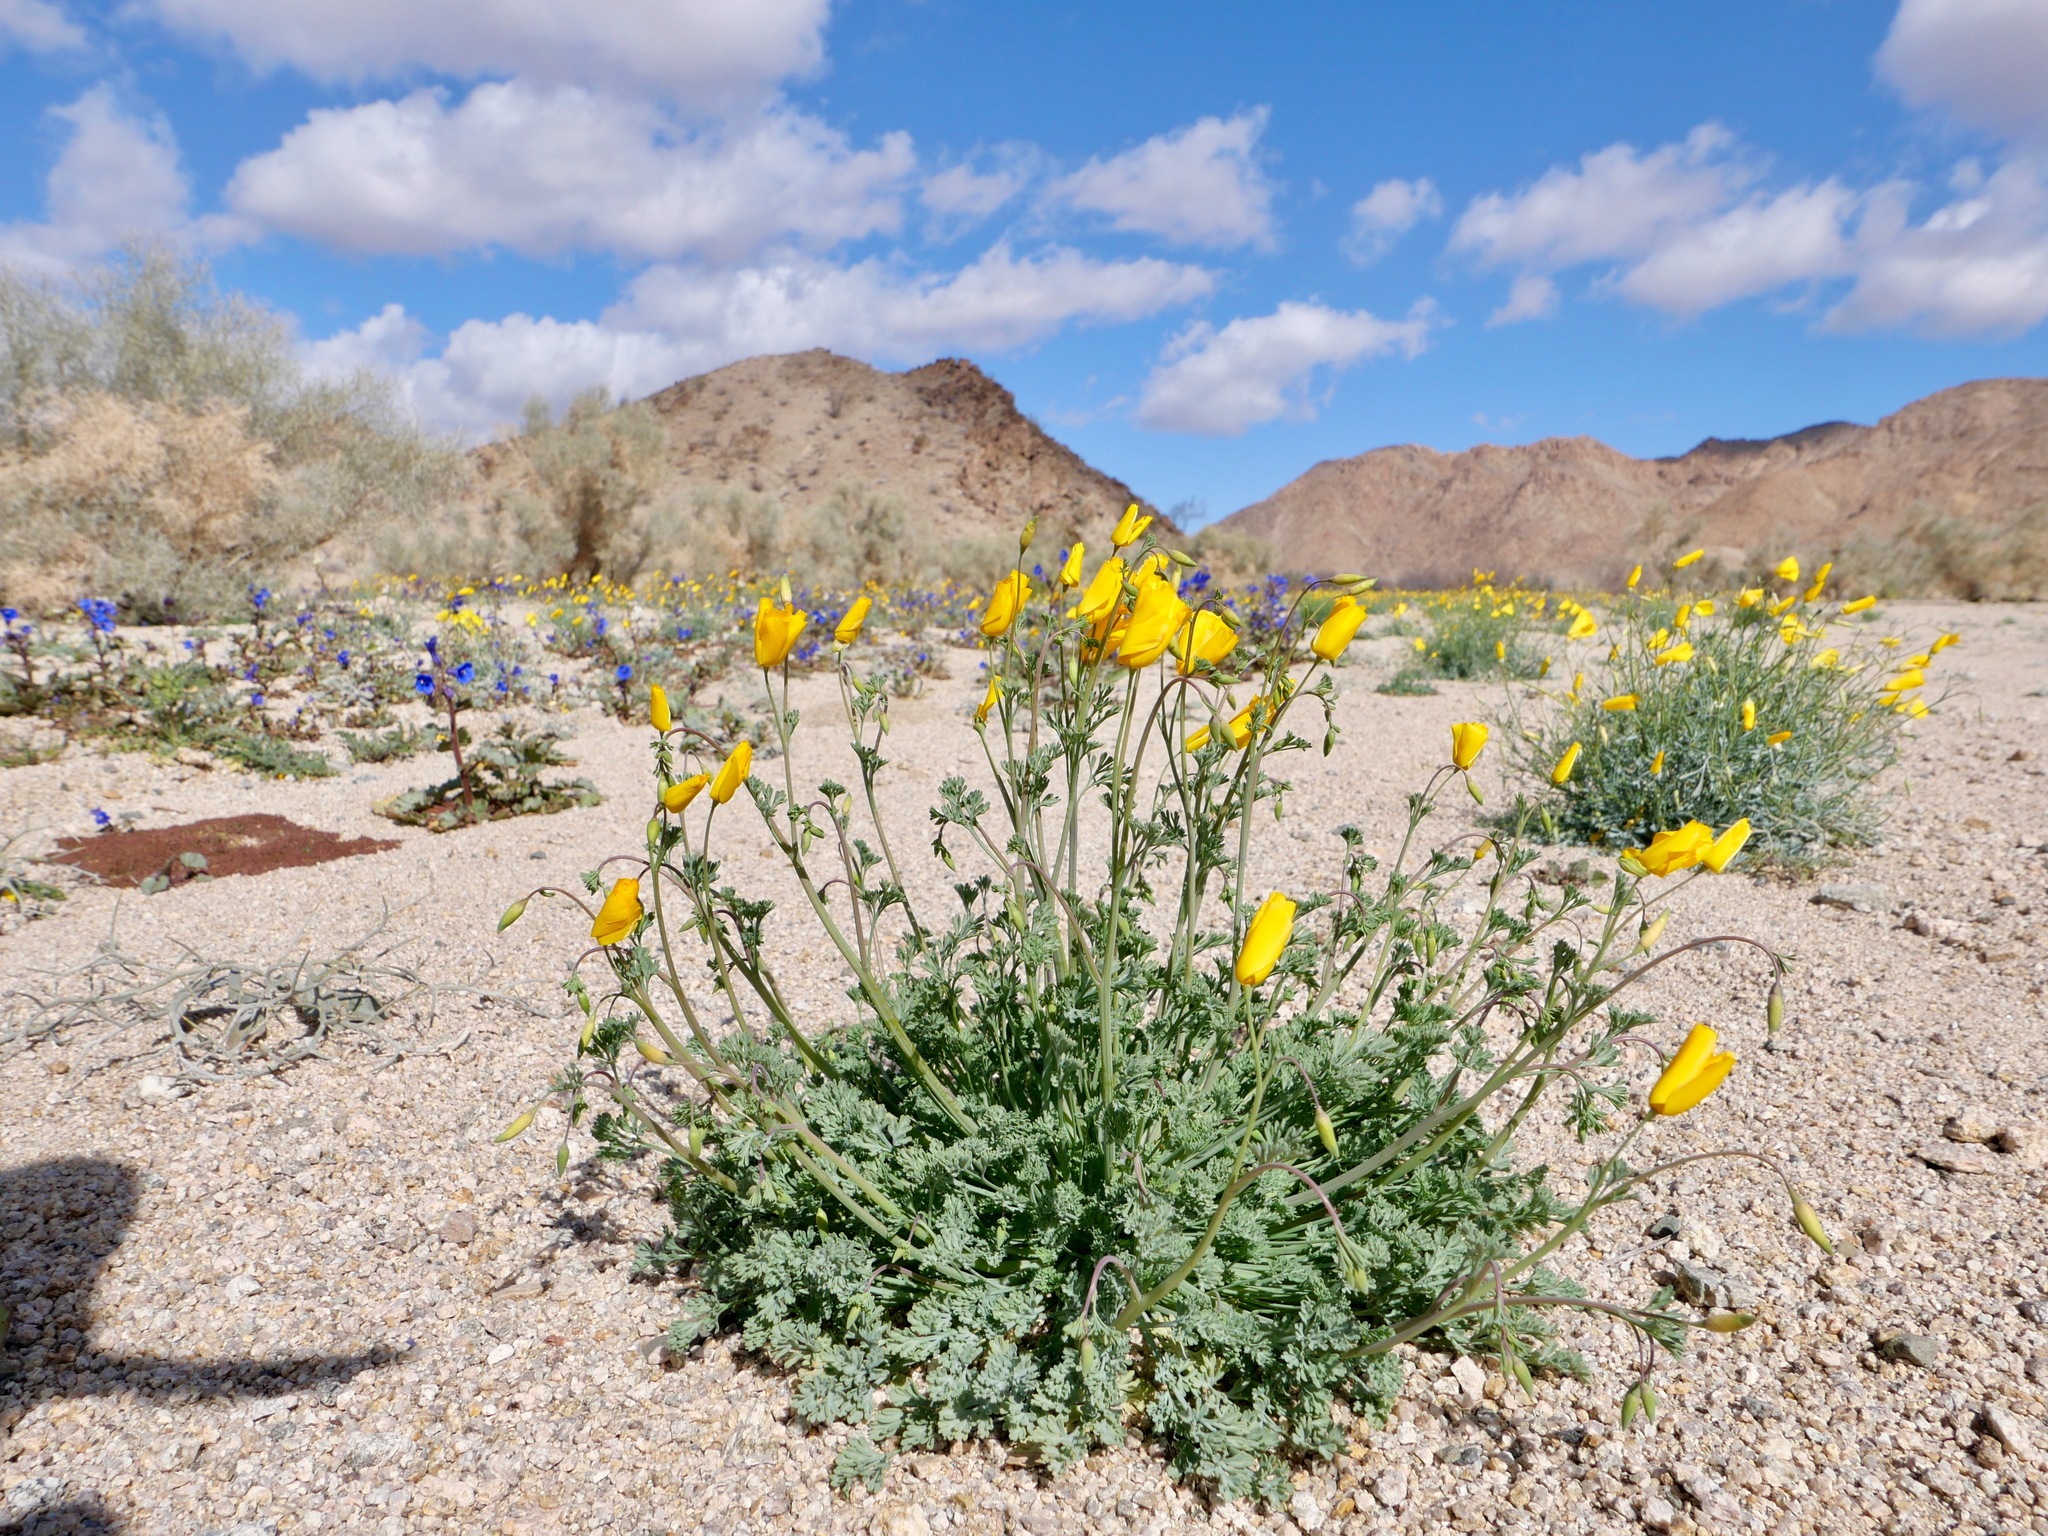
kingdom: Plantae
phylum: Tracheophyta
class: Magnoliopsida
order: Ranunculales
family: Papaveraceae
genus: Eschscholzia
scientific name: Eschscholzia androuxii
